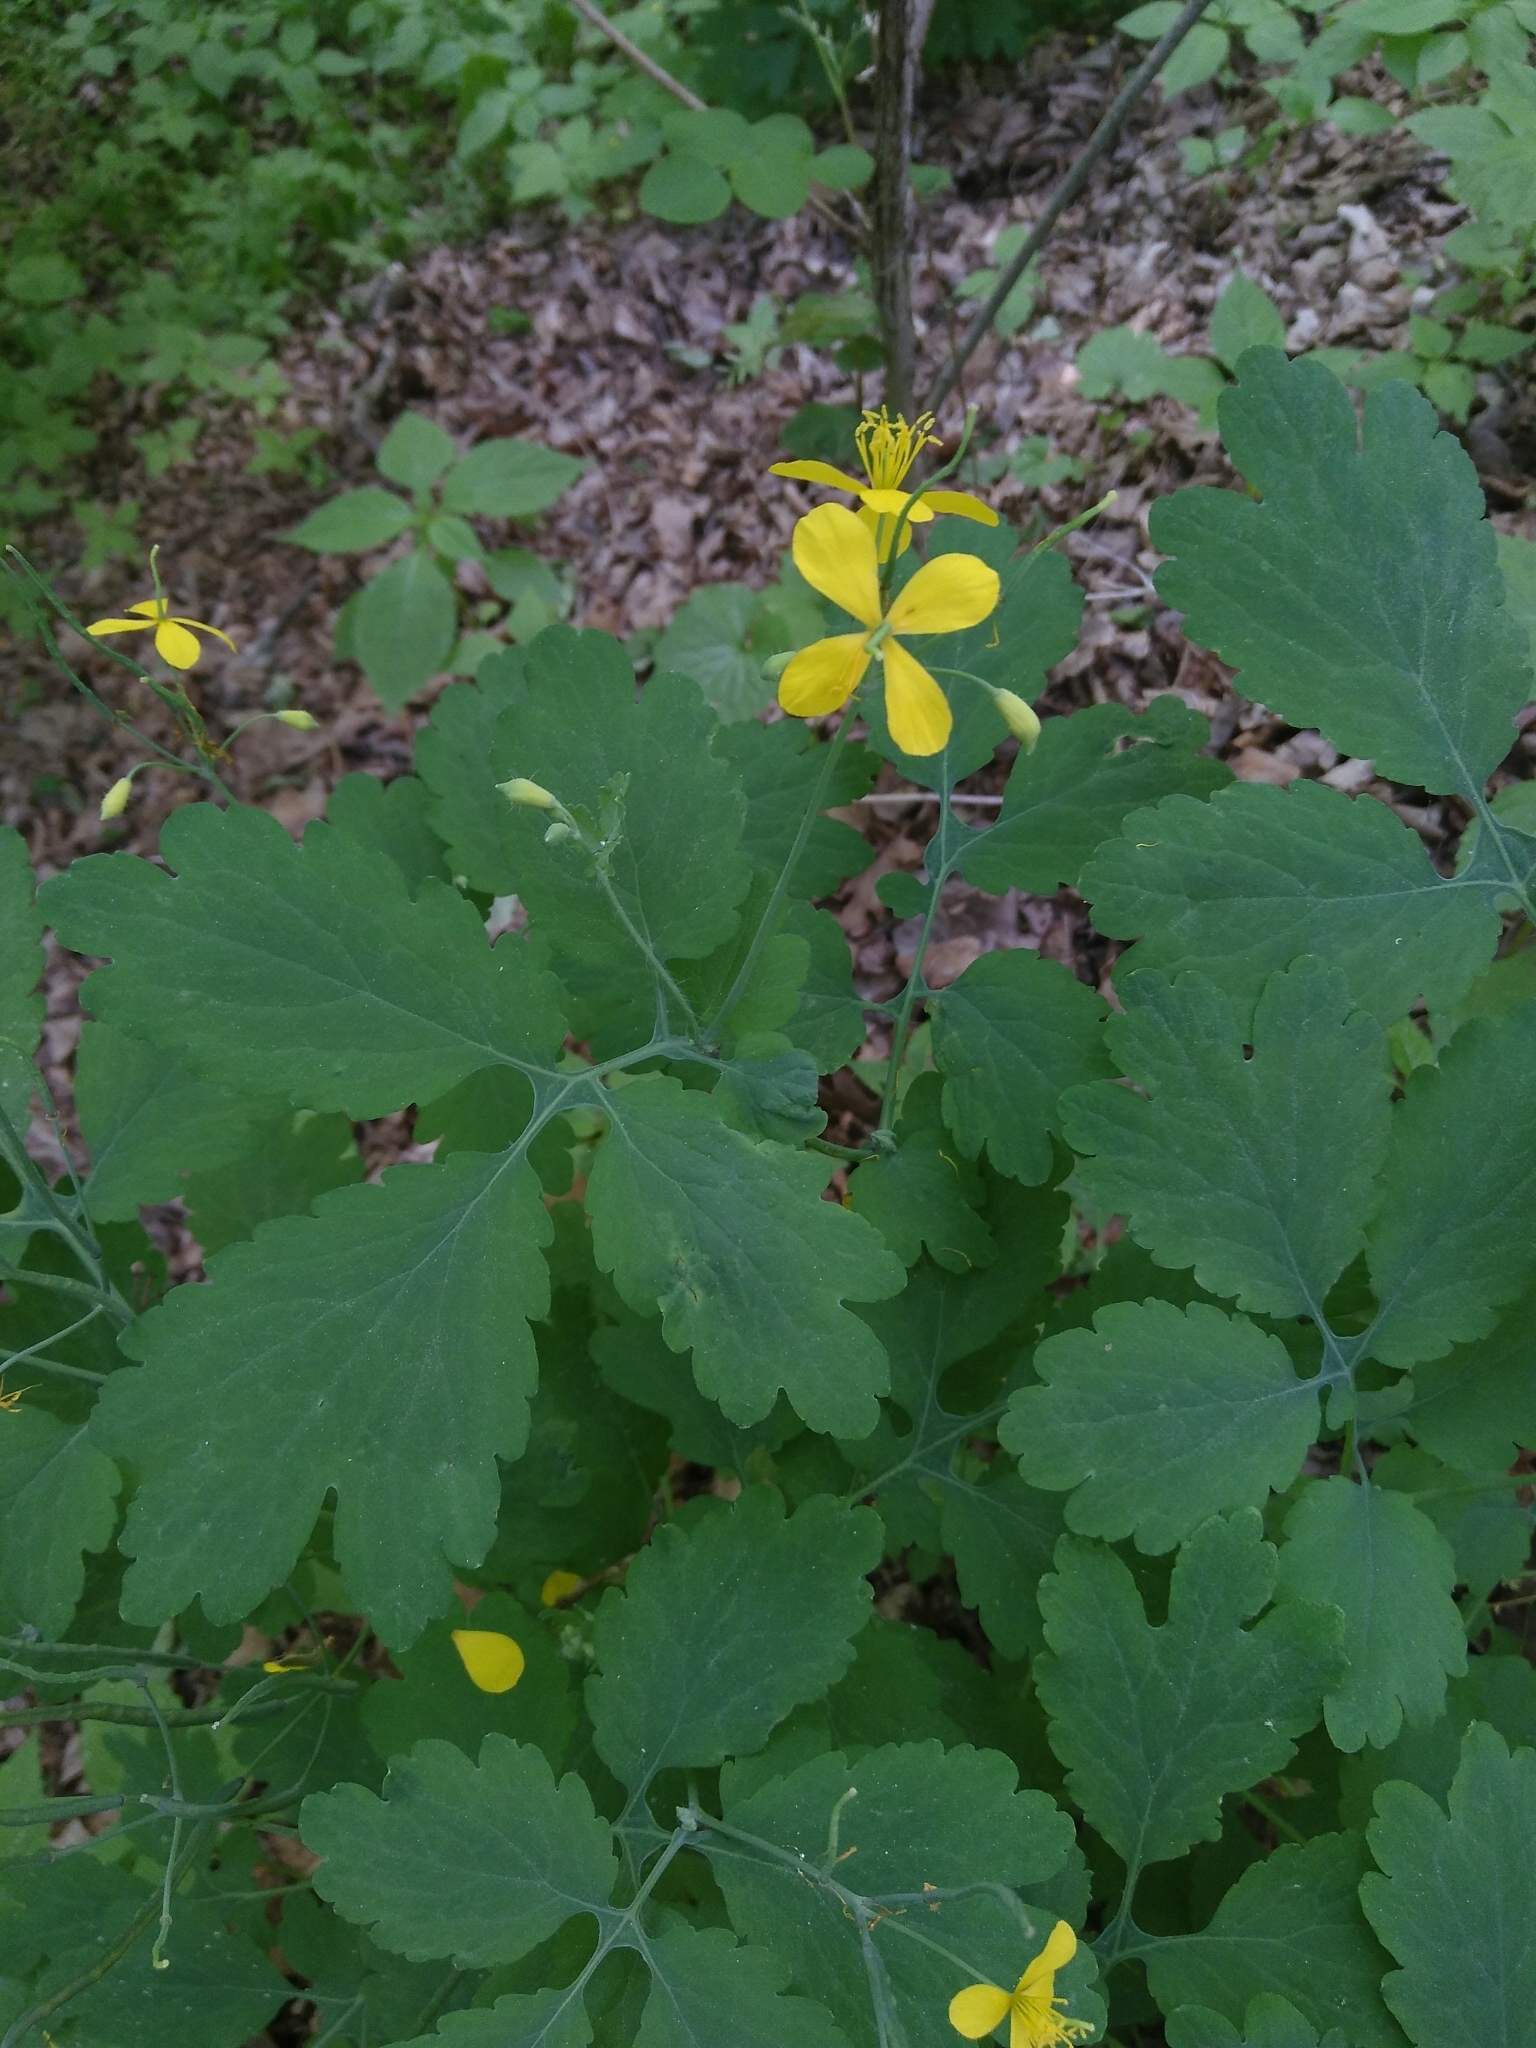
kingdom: Plantae
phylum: Tracheophyta
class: Magnoliopsida
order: Ranunculales
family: Papaveraceae
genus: Chelidonium
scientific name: Chelidonium majus
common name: Greater celandine
